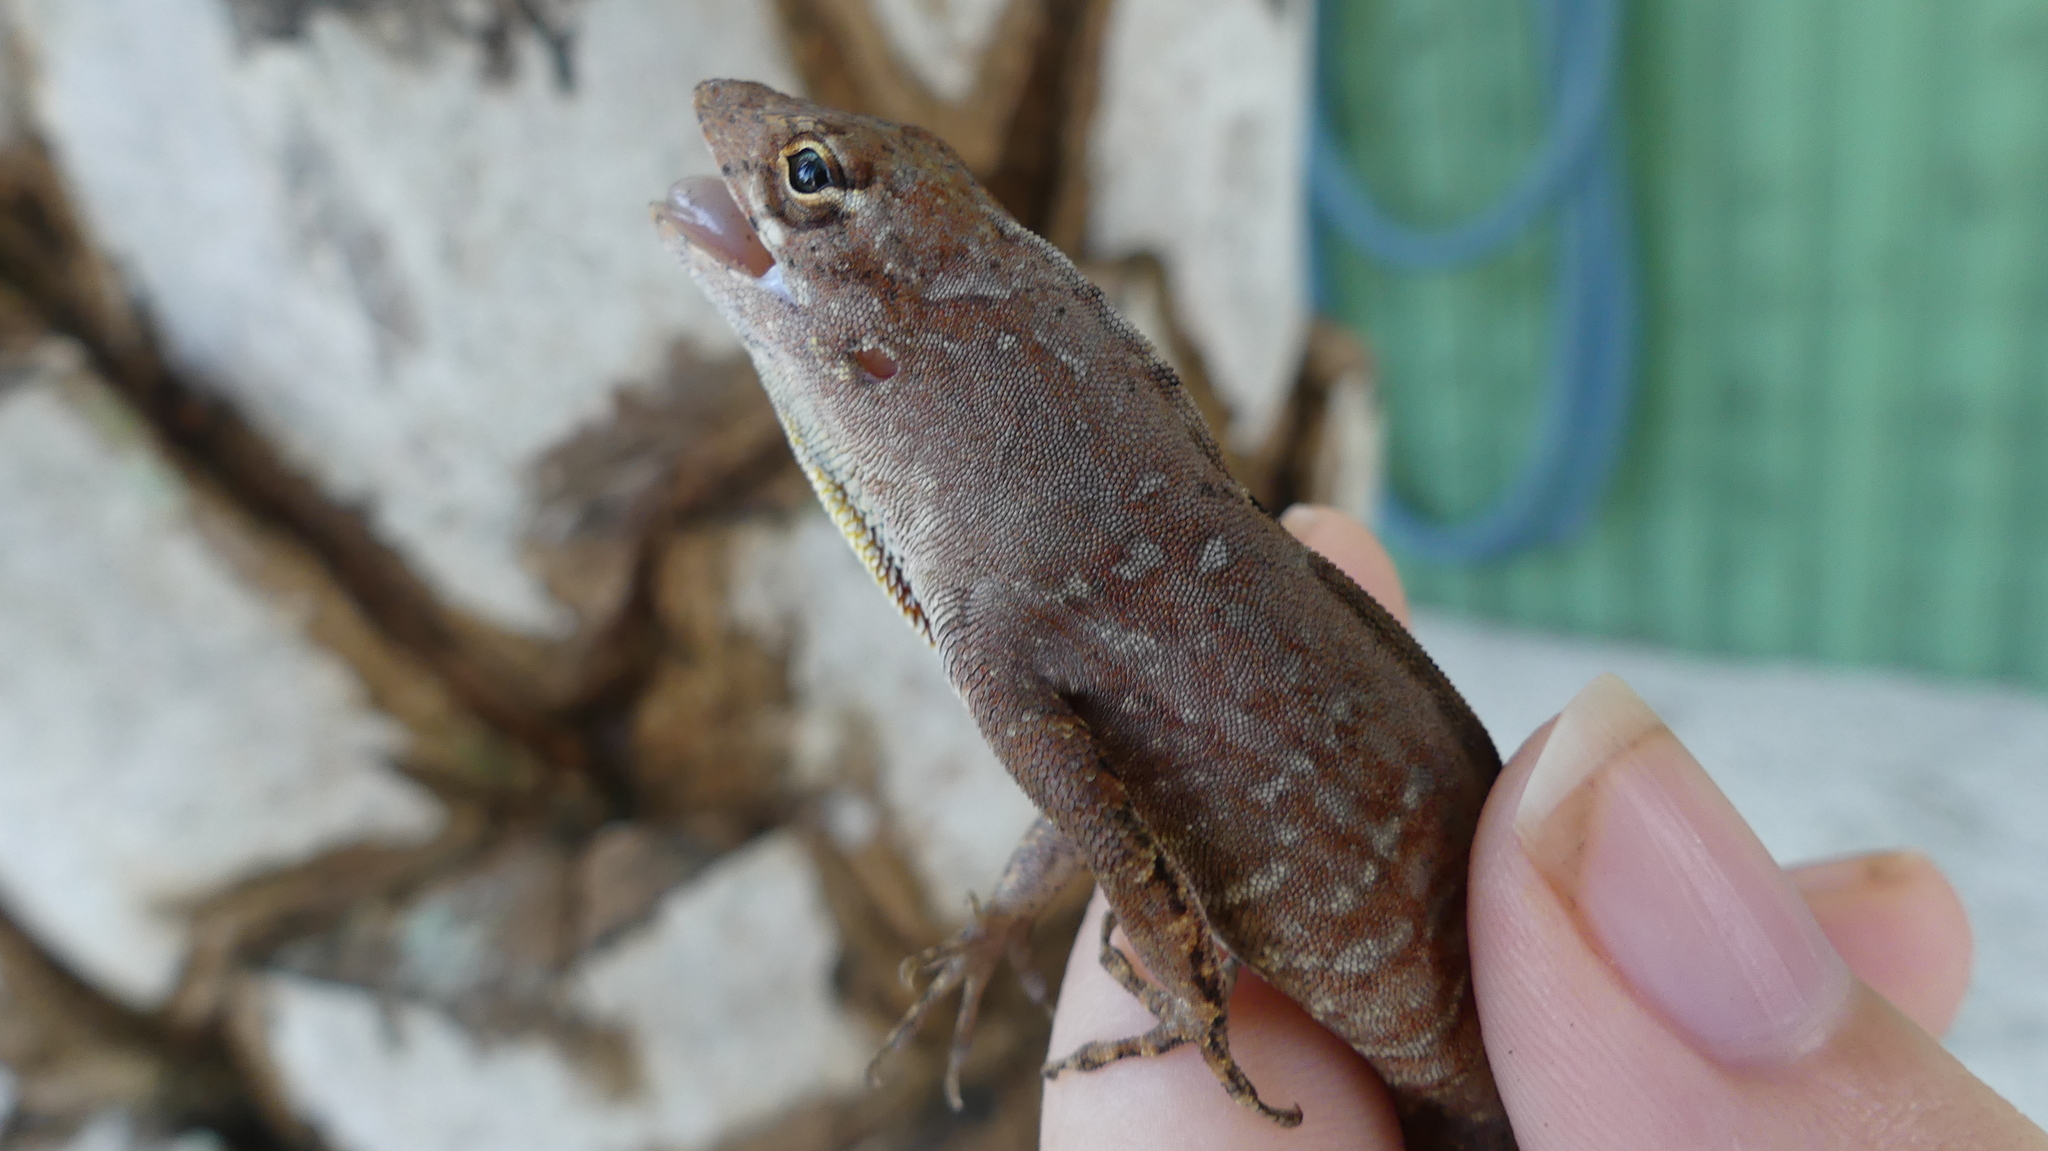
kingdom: Animalia
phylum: Chordata
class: Squamata
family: Dactyloidae
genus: Anolis
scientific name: Anolis sagrei
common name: Brown anole
